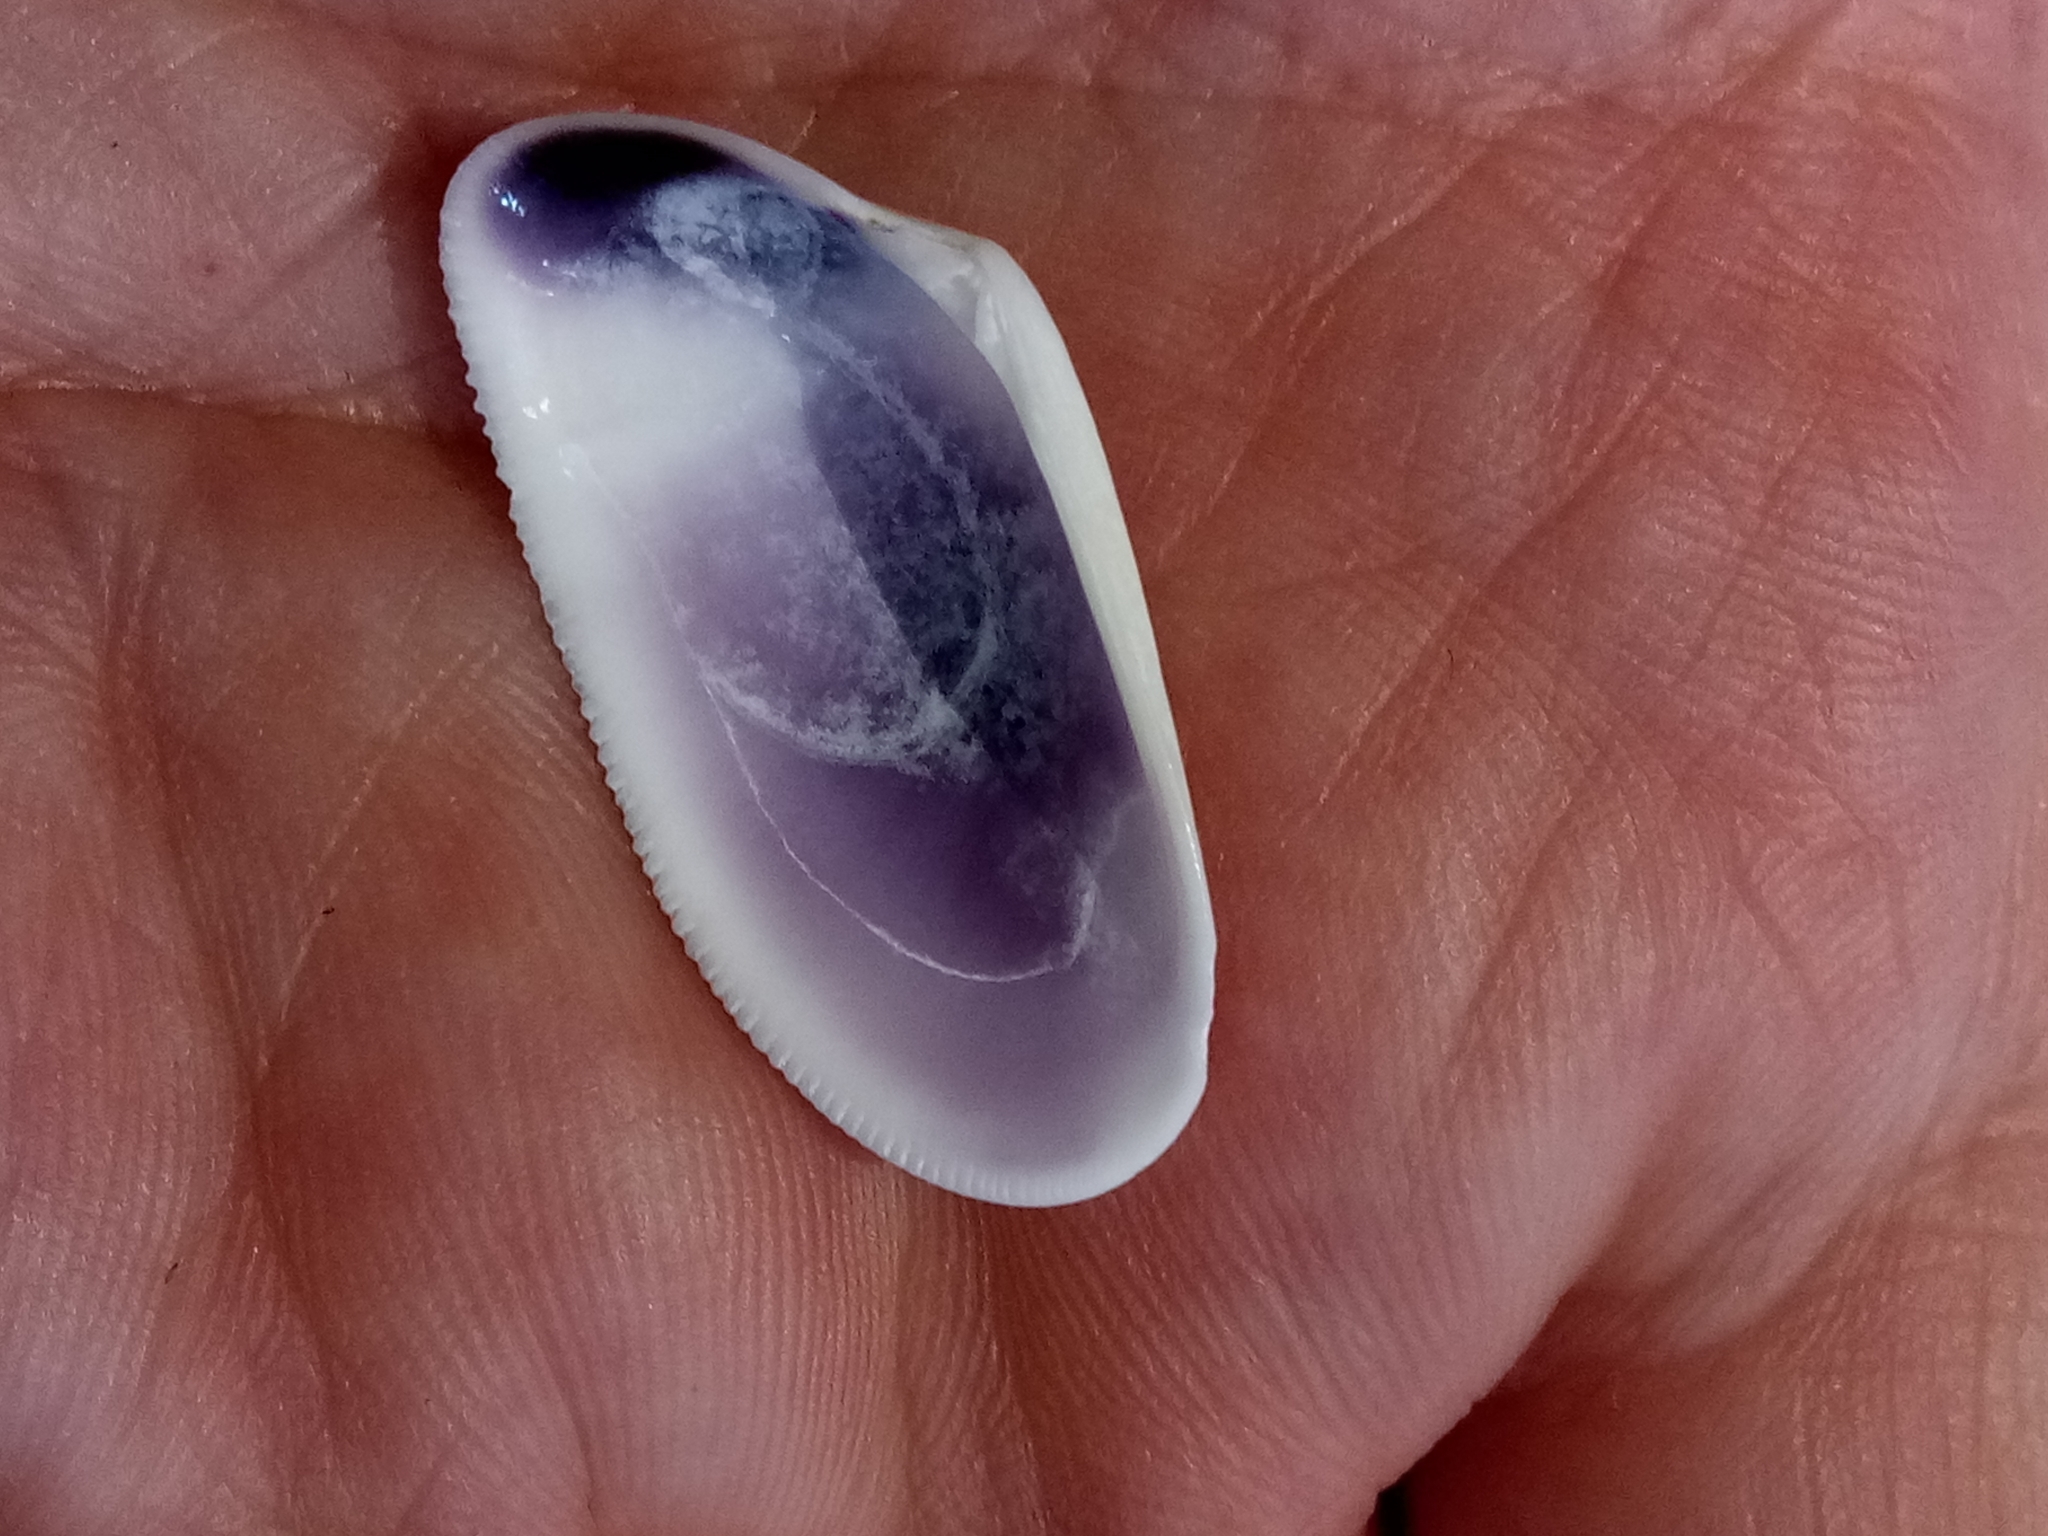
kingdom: Animalia
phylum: Mollusca
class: Bivalvia
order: Cardiida
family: Donacidae
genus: Donax
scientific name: Donax trunculus
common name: Truncate donax
